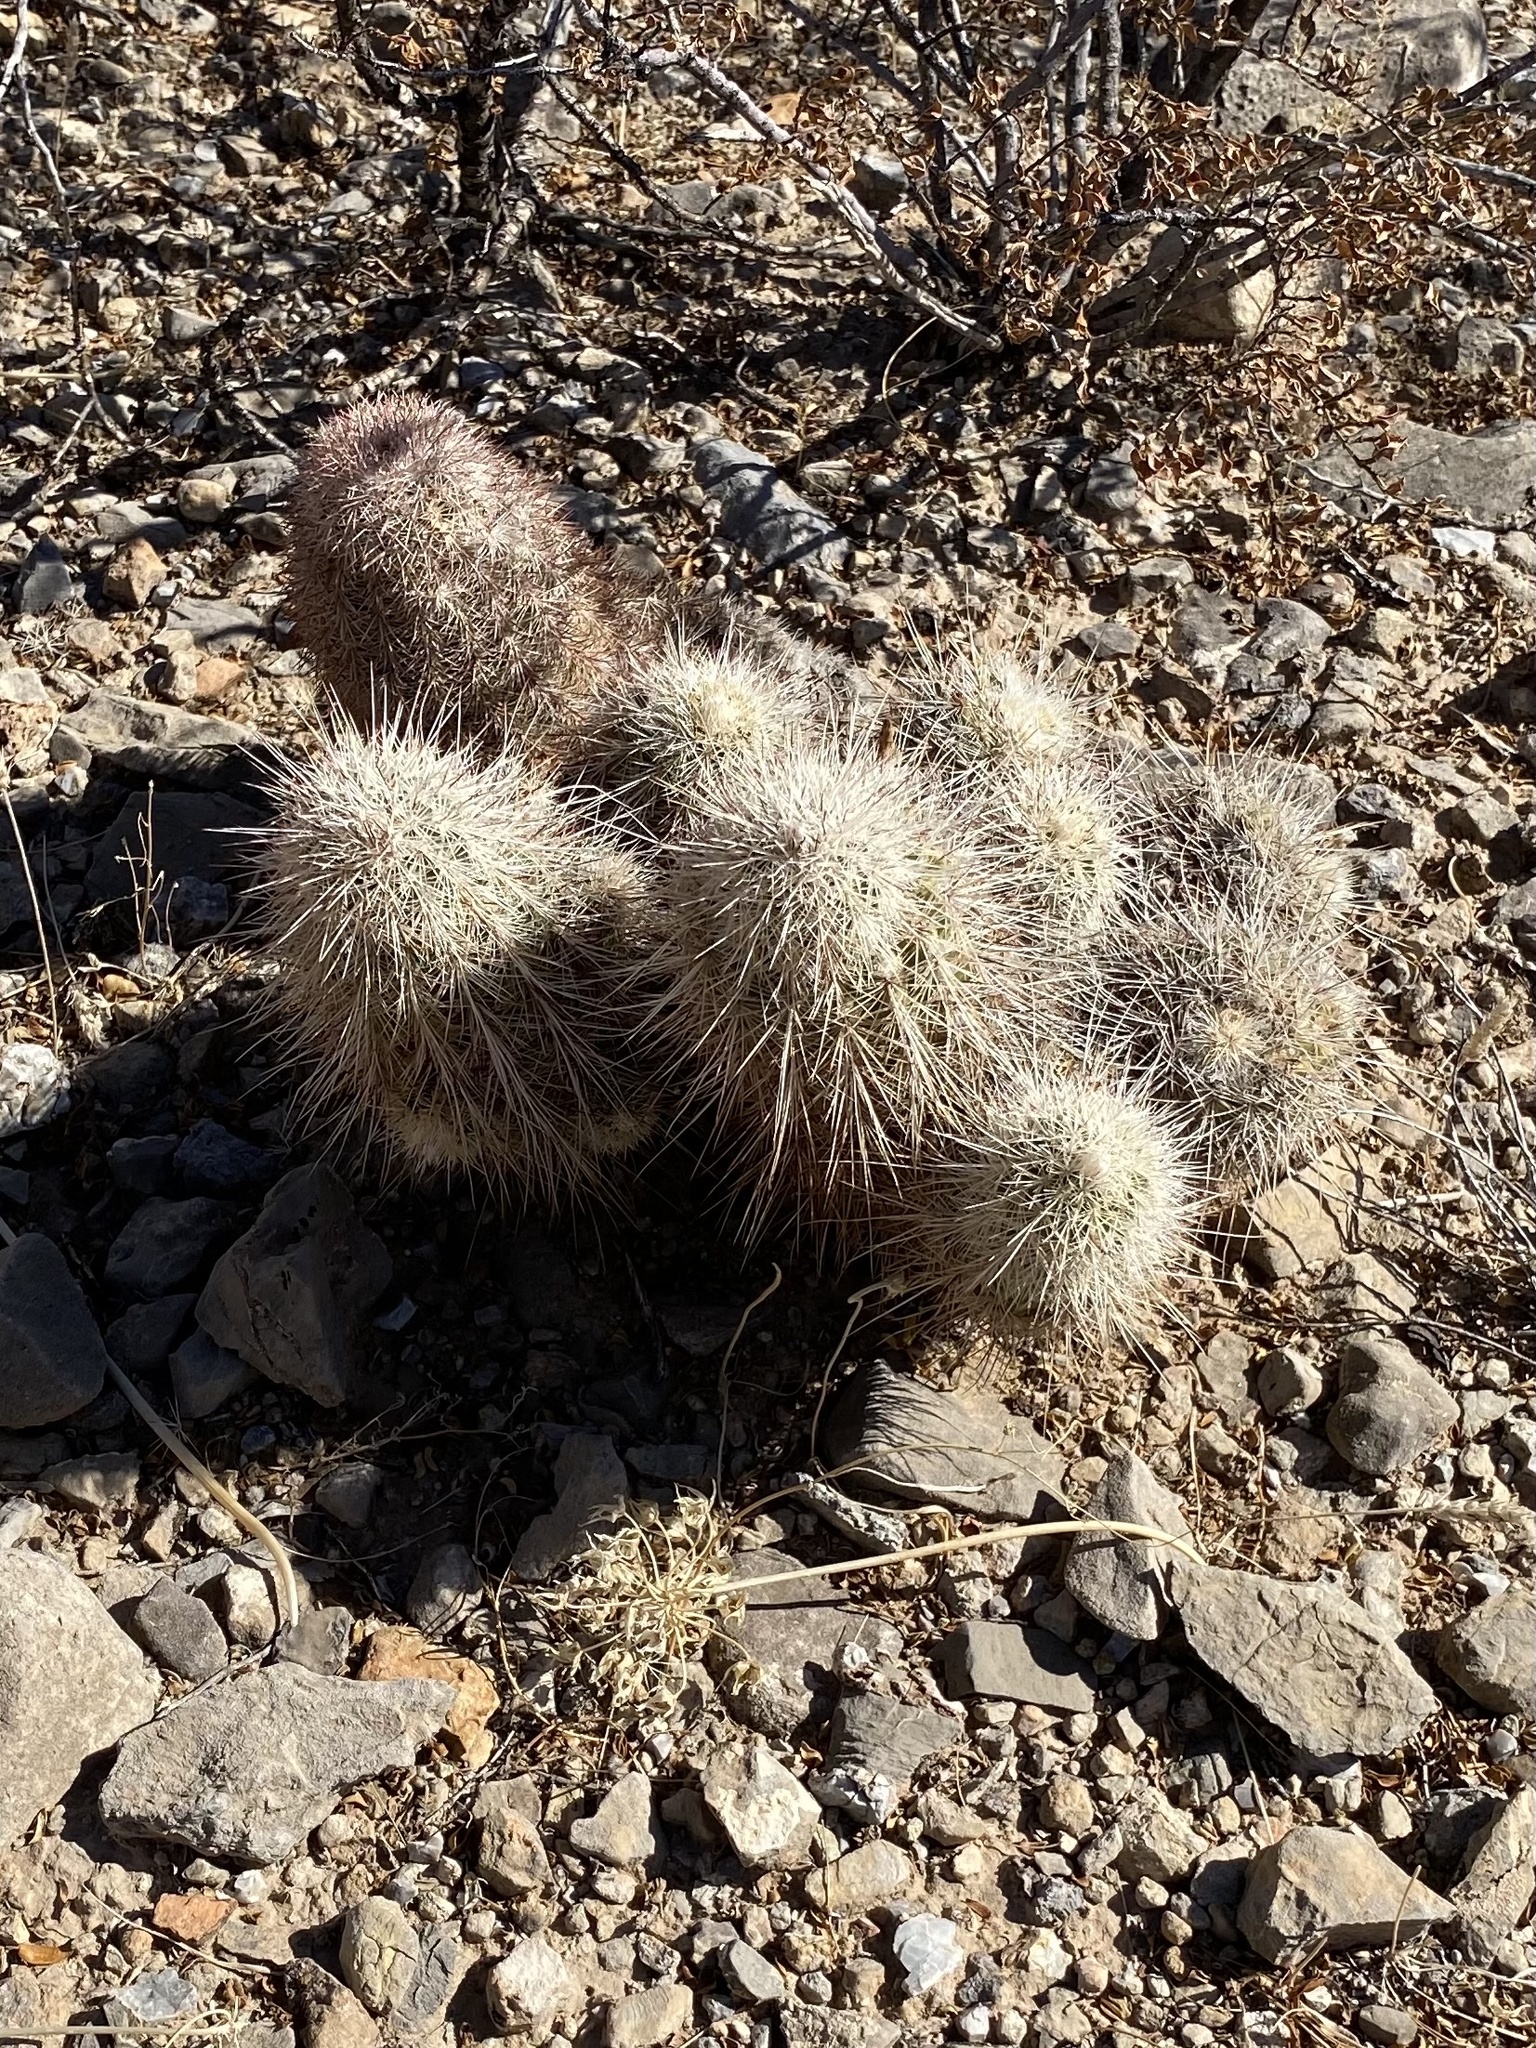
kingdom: Plantae
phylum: Tracheophyta
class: Magnoliopsida
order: Caryophyllales
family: Cactaceae
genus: Echinocereus
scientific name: Echinocereus dasyacanthus
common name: Spiny hedgehog cactus
